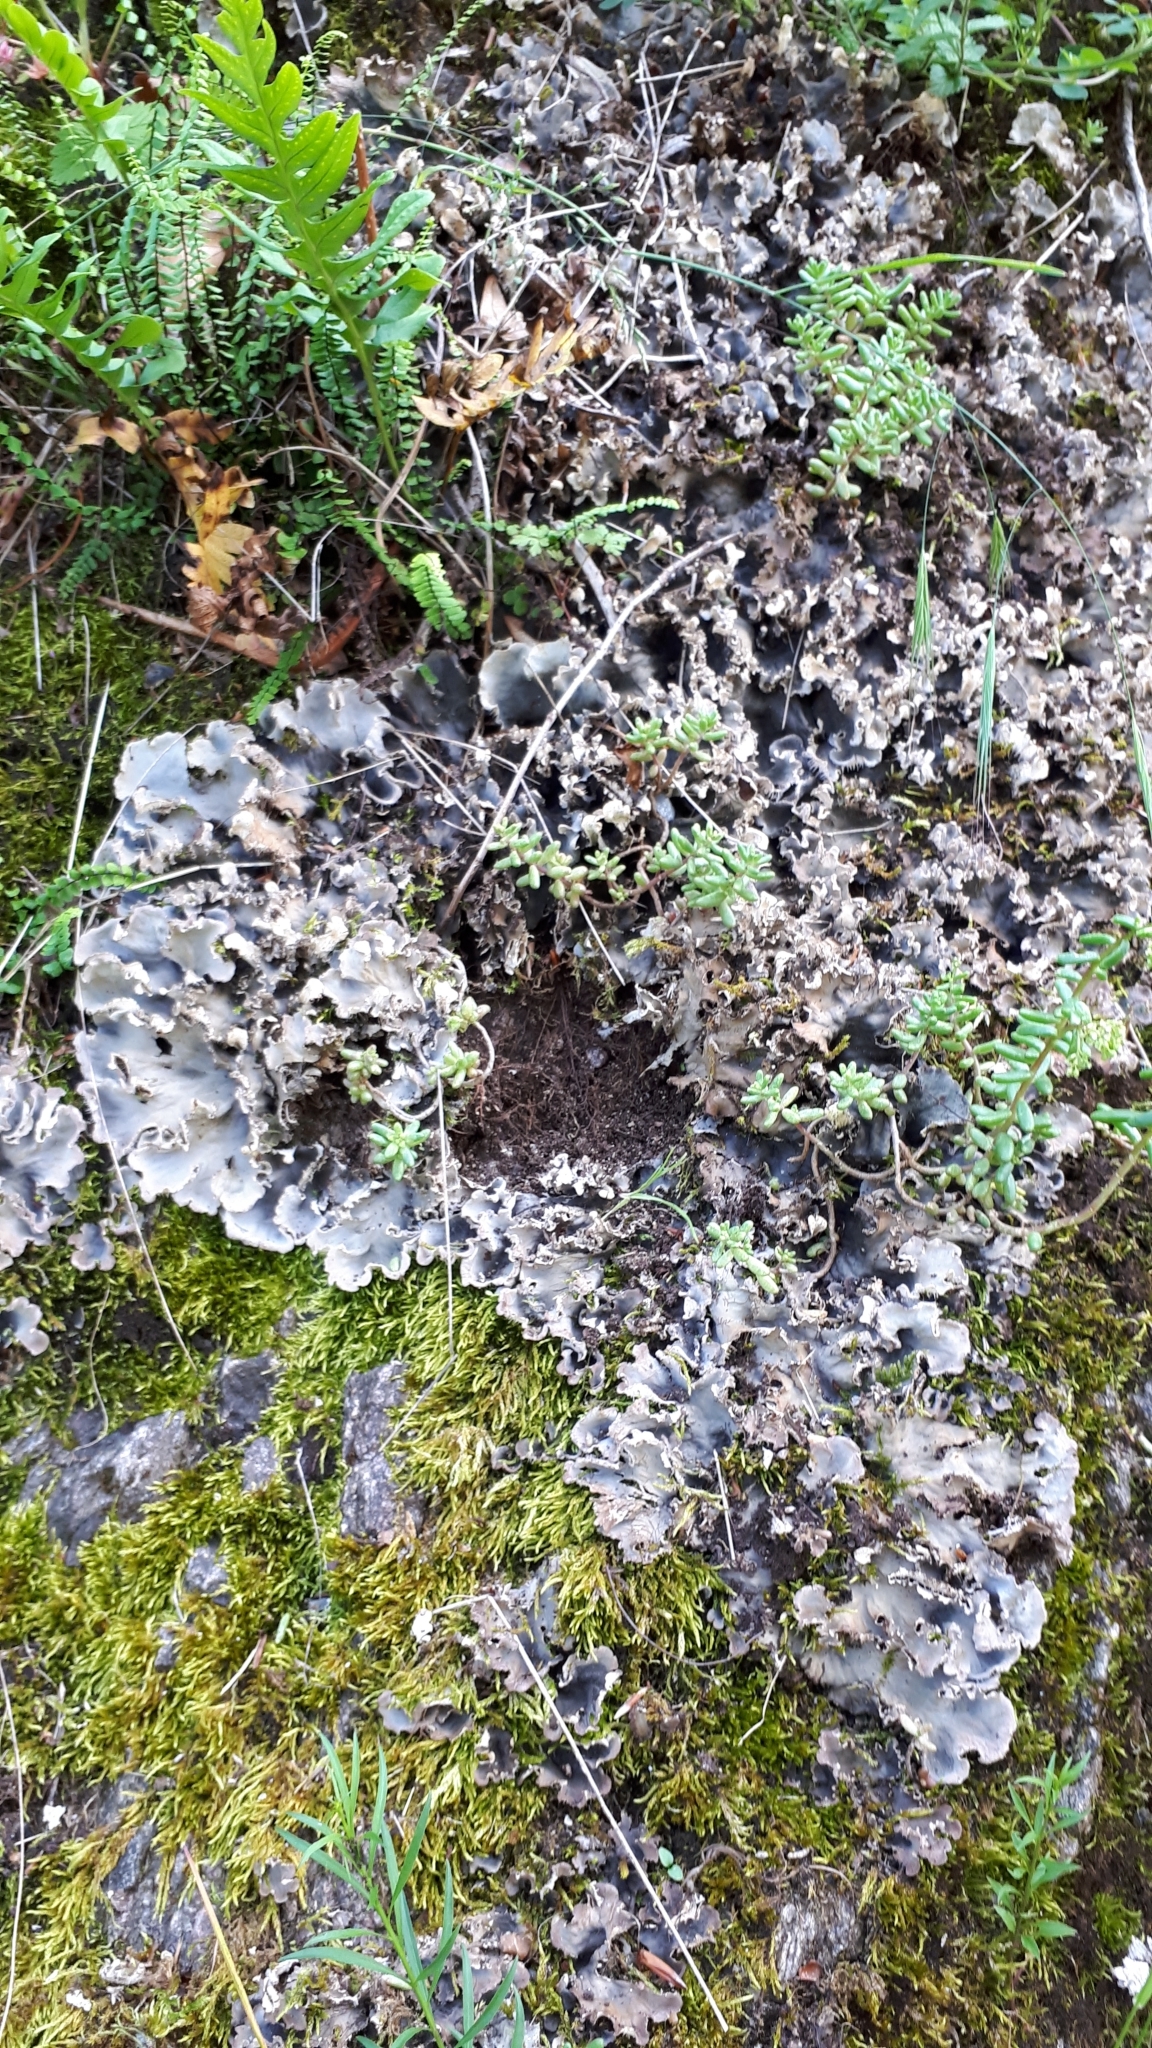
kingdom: Fungi
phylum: Ascomycota
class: Lecanoromycetes
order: Peltigerales
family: Peltigeraceae
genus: Peltigera
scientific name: Peltigera rufescens
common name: Field dog lichen
